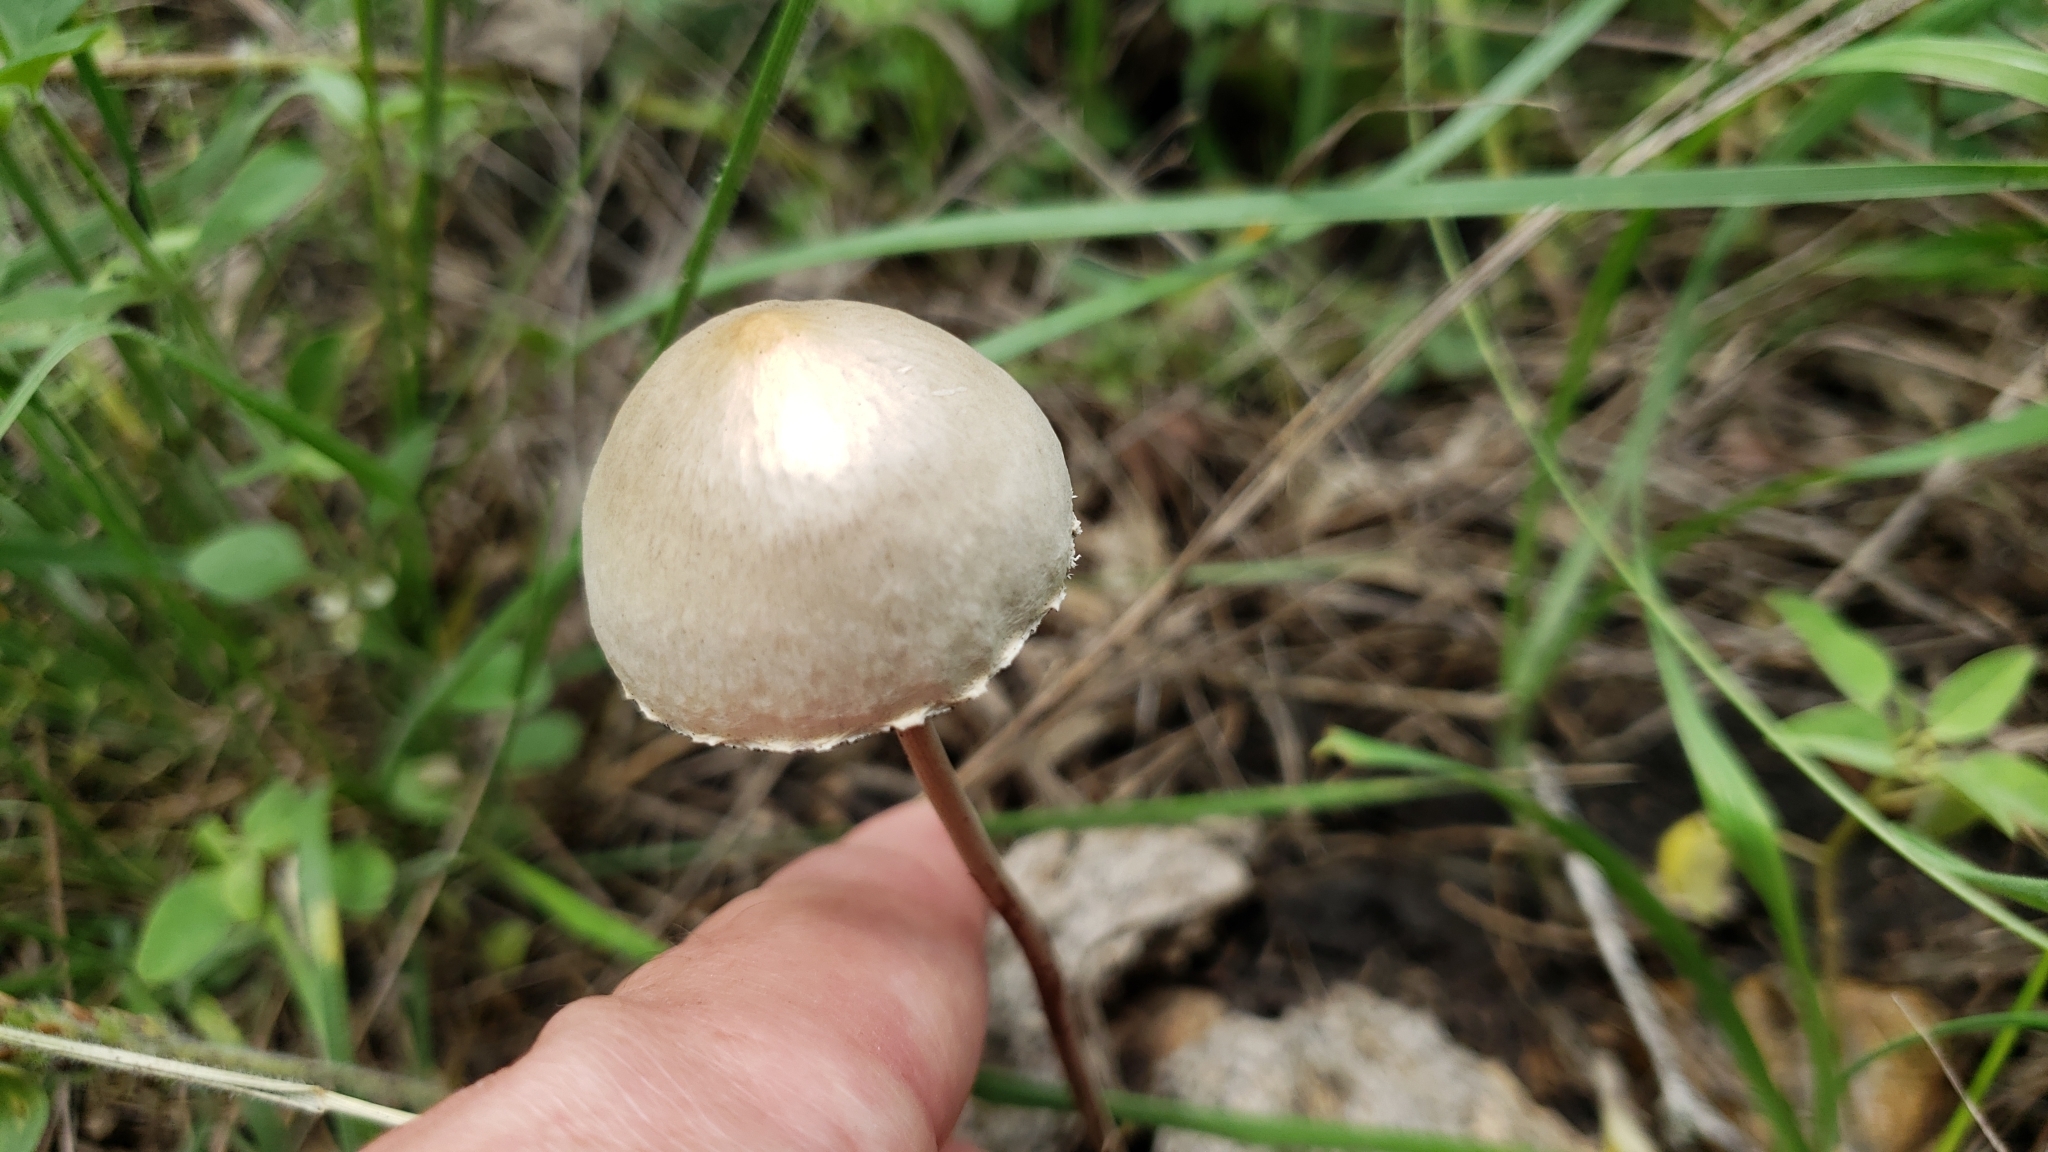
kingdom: Fungi
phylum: Basidiomycota
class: Agaricomycetes
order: Agaricales
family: Bolbitiaceae
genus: Panaeolus
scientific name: Panaeolus papilionaceus
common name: Petticoat mottlegill
